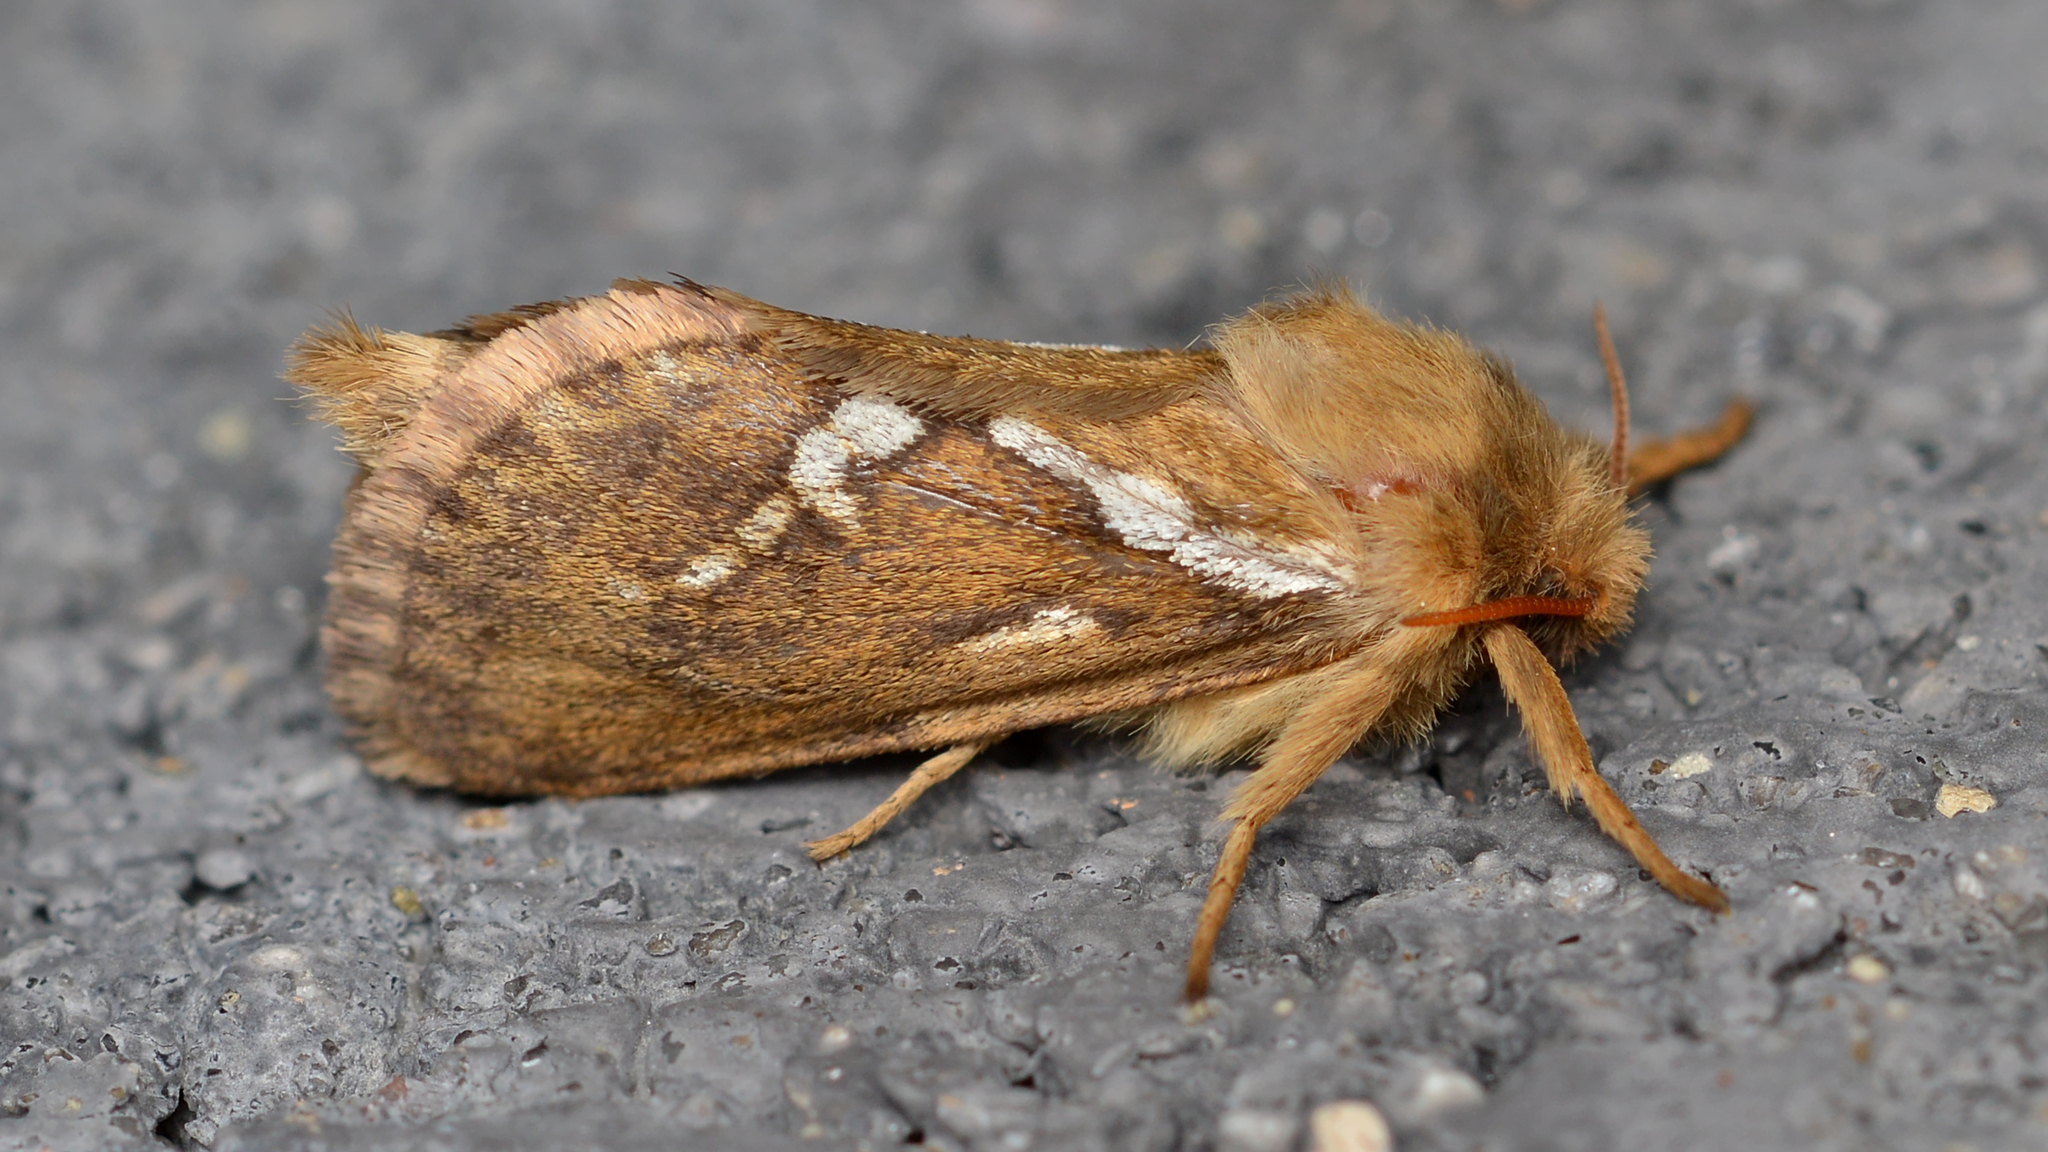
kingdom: Animalia
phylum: Arthropoda
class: Insecta
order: Lepidoptera
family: Hepialidae
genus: Korscheltellus
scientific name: Korscheltellus lupulina
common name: Common swift
